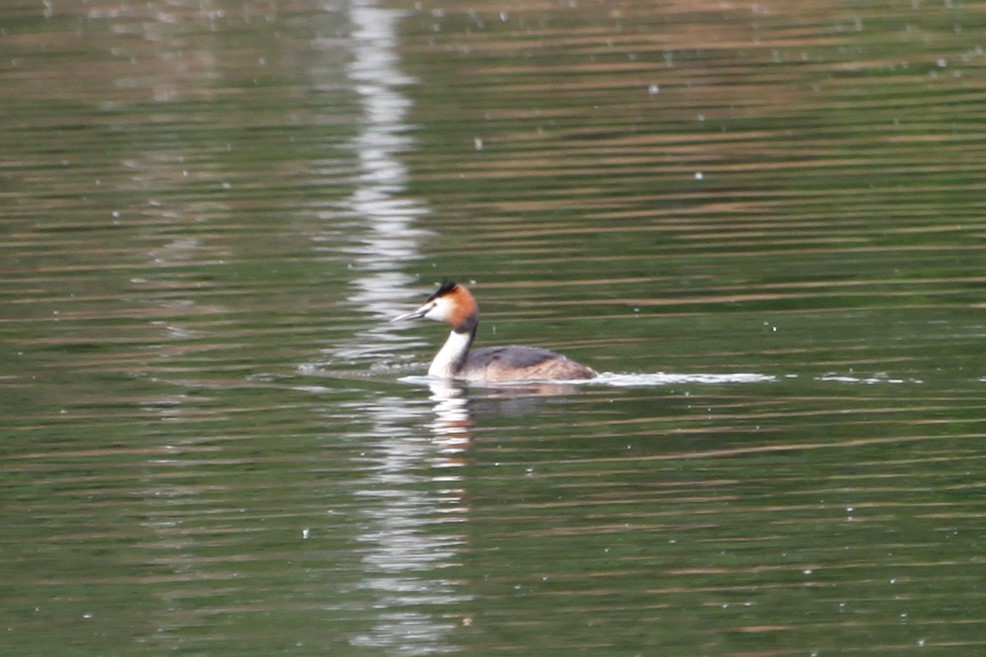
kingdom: Animalia
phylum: Chordata
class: Aves
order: Podicipediformes
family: Podicipedidae
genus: Podiceps
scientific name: Podiceps cristatus
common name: Great crested grebe
